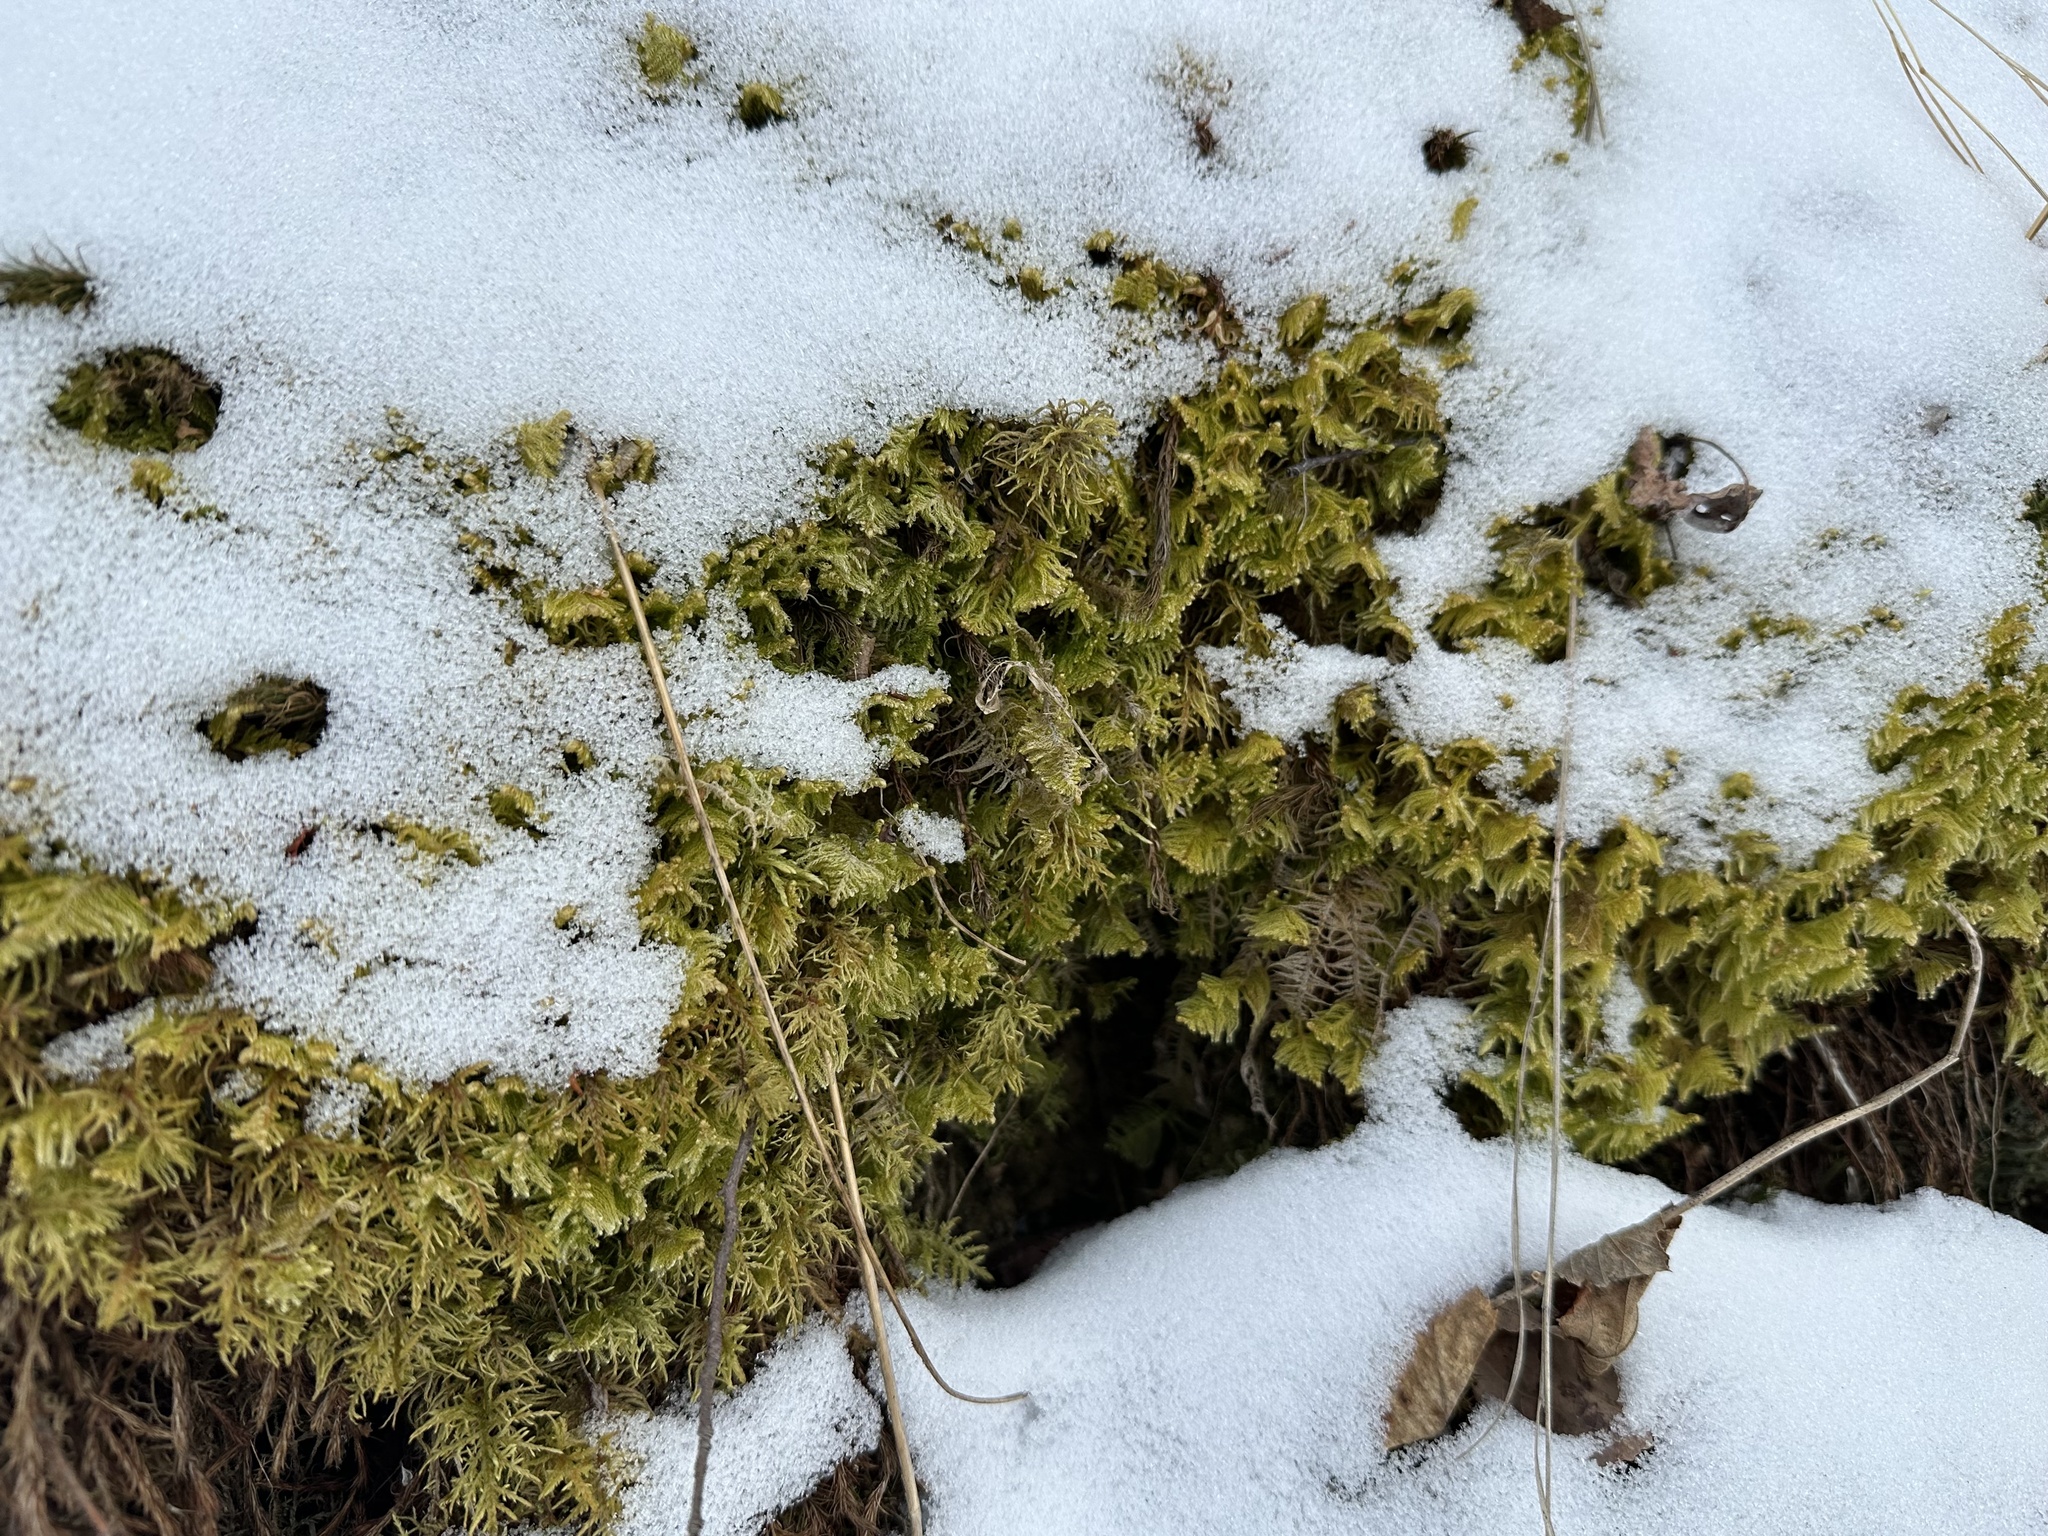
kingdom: Plantae
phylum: Bryophyta
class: Bryopsida
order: Hypnales
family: Pylaisiaceae
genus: Ptilium
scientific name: Ptilium crista-castrensis
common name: Knight's plume moss
